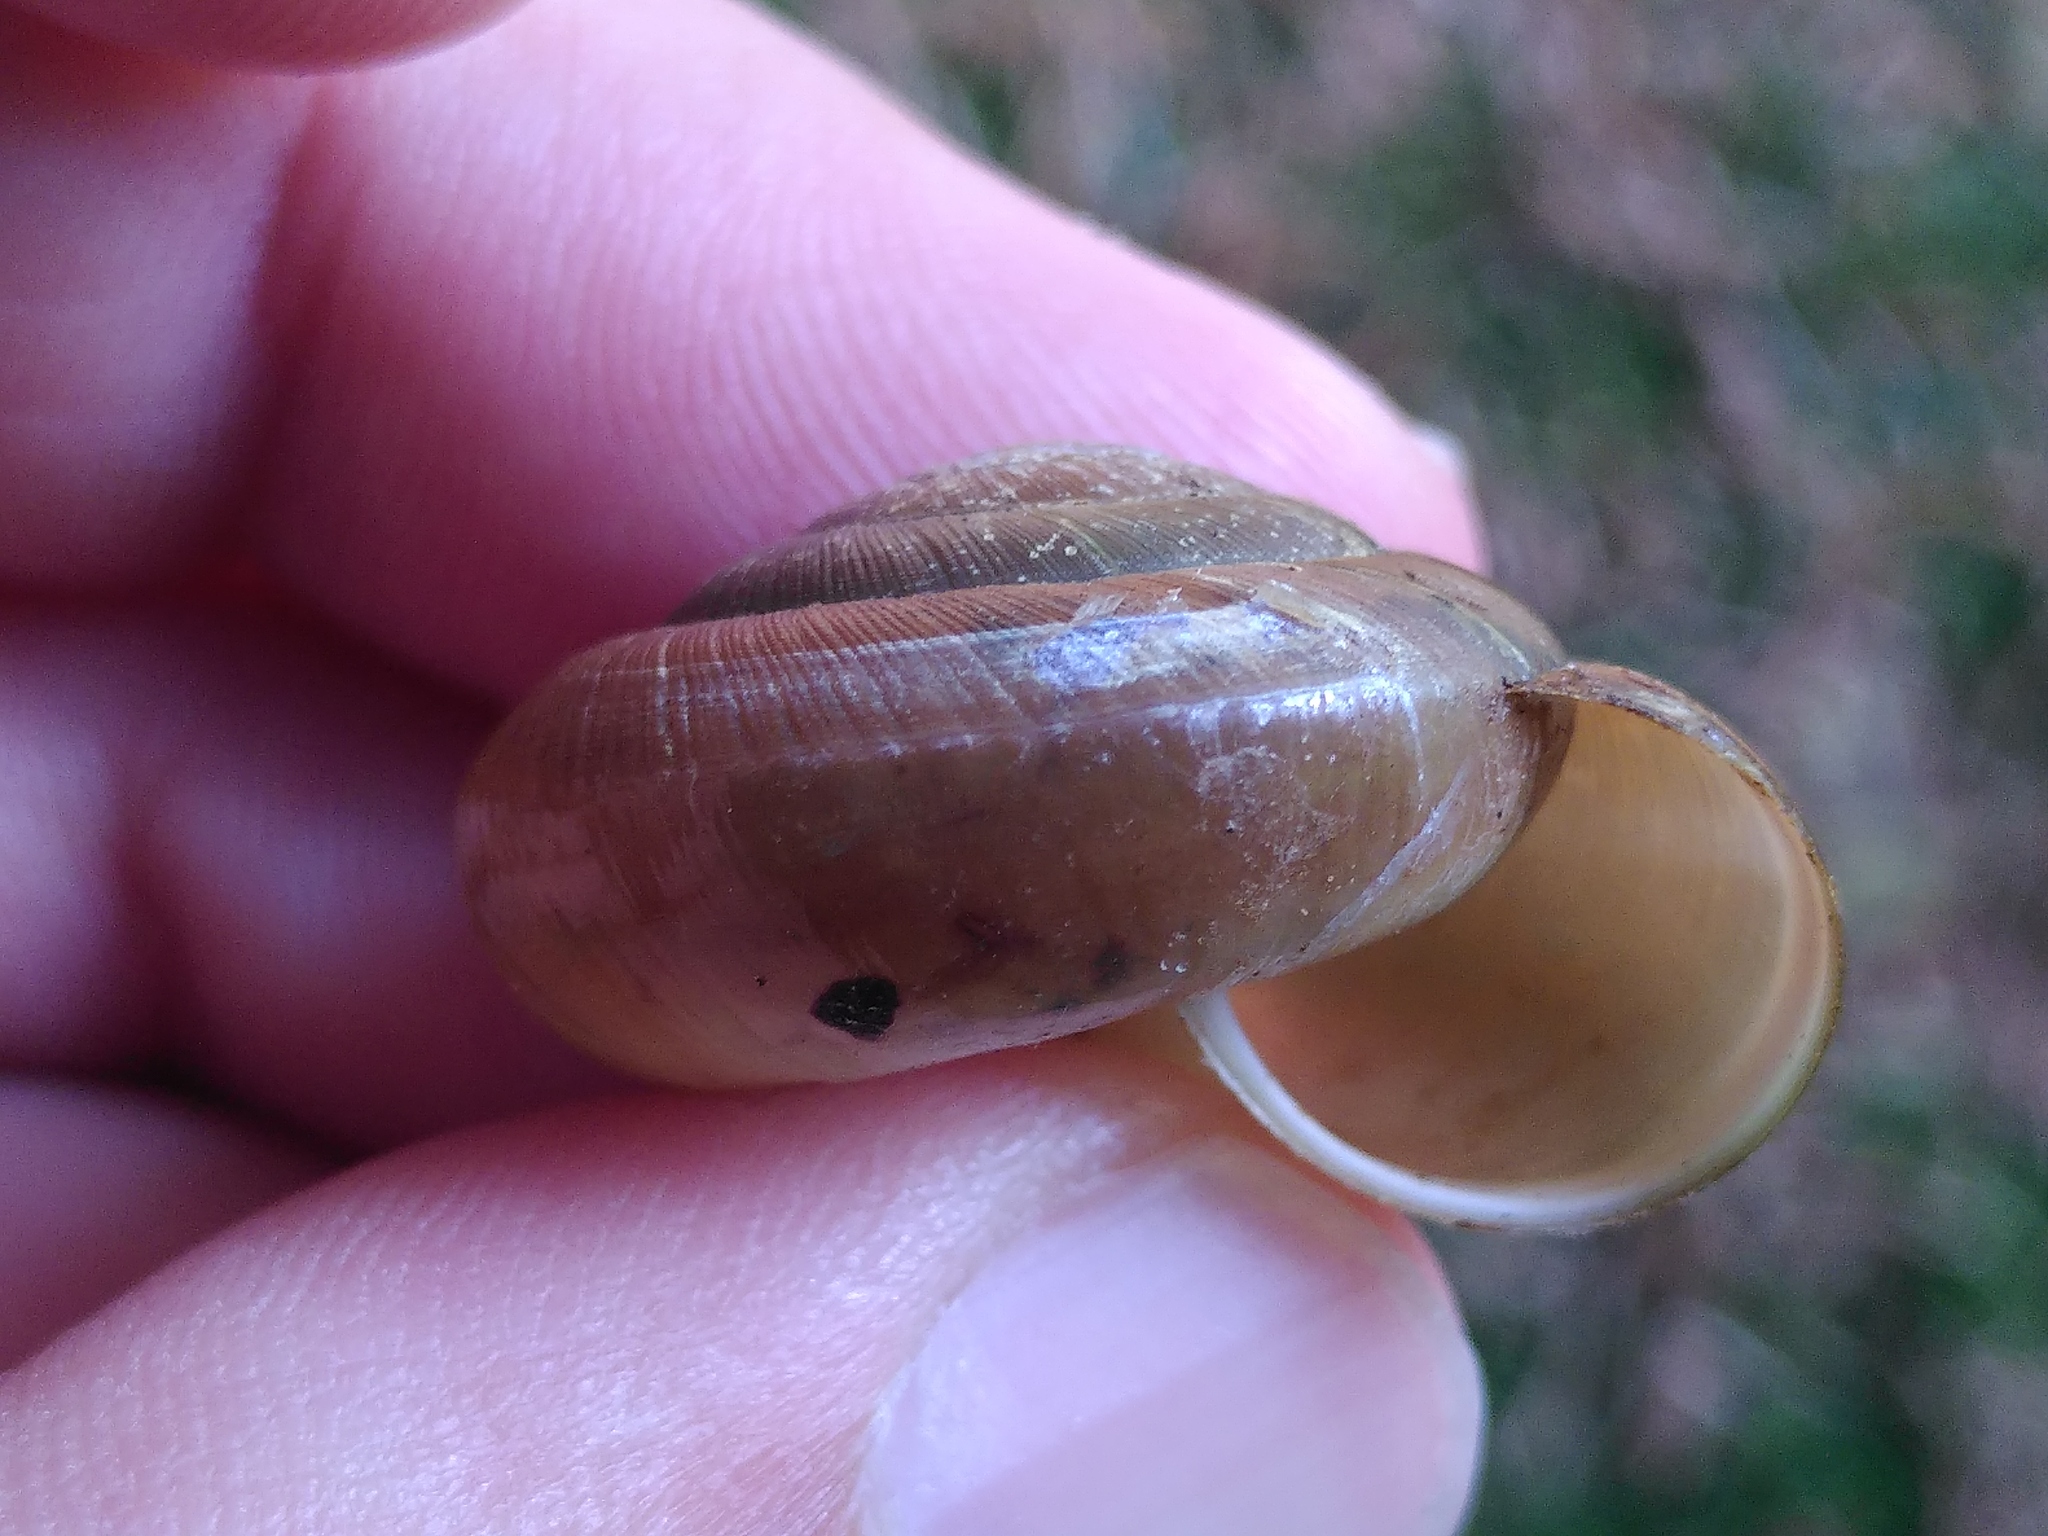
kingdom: Animalia
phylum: Mollusca
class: Gastropoda
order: Stylommatophora
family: Zonitidae
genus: Aegopis
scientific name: Aegopis verticillus
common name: Giant glass snail
